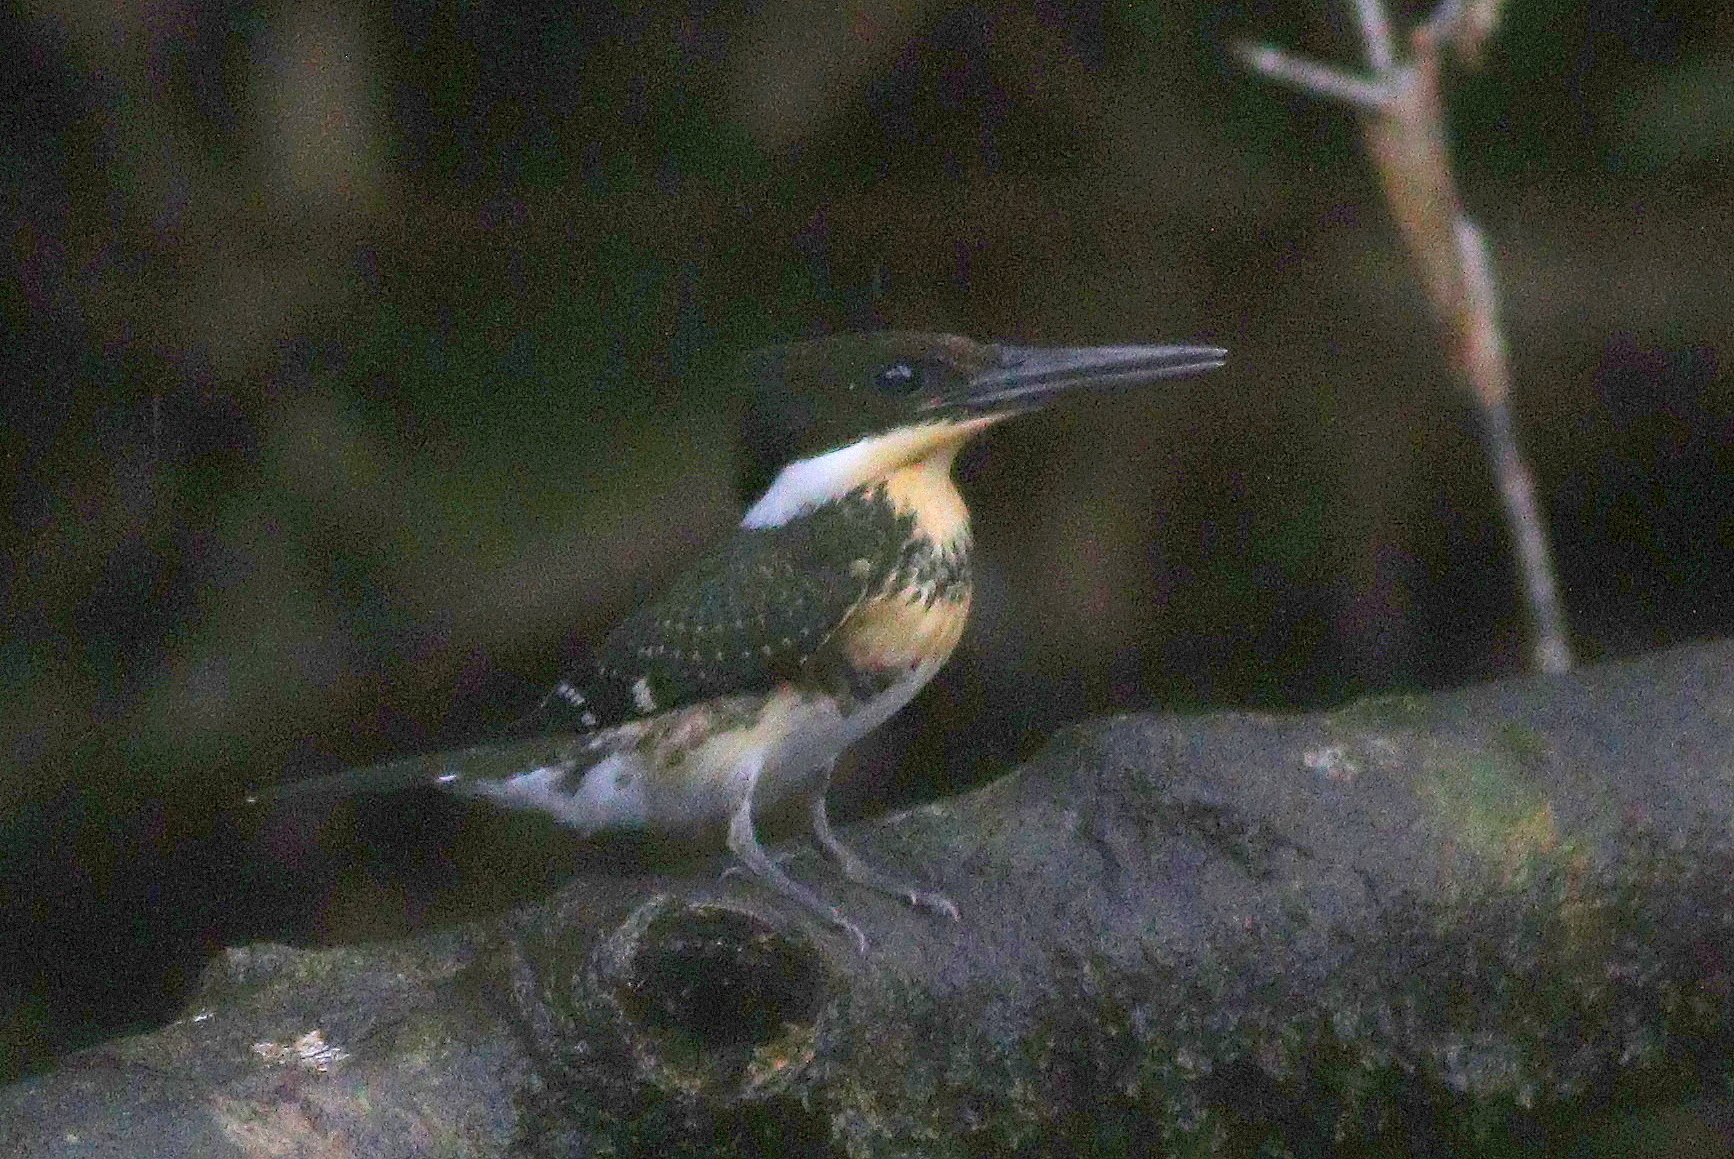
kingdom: Animalia
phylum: Chordata
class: Aves
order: Coraciiformes
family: Alcedinidae
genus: Chloroceryle
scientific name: Chloroceryle americana
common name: Green kingfisher
